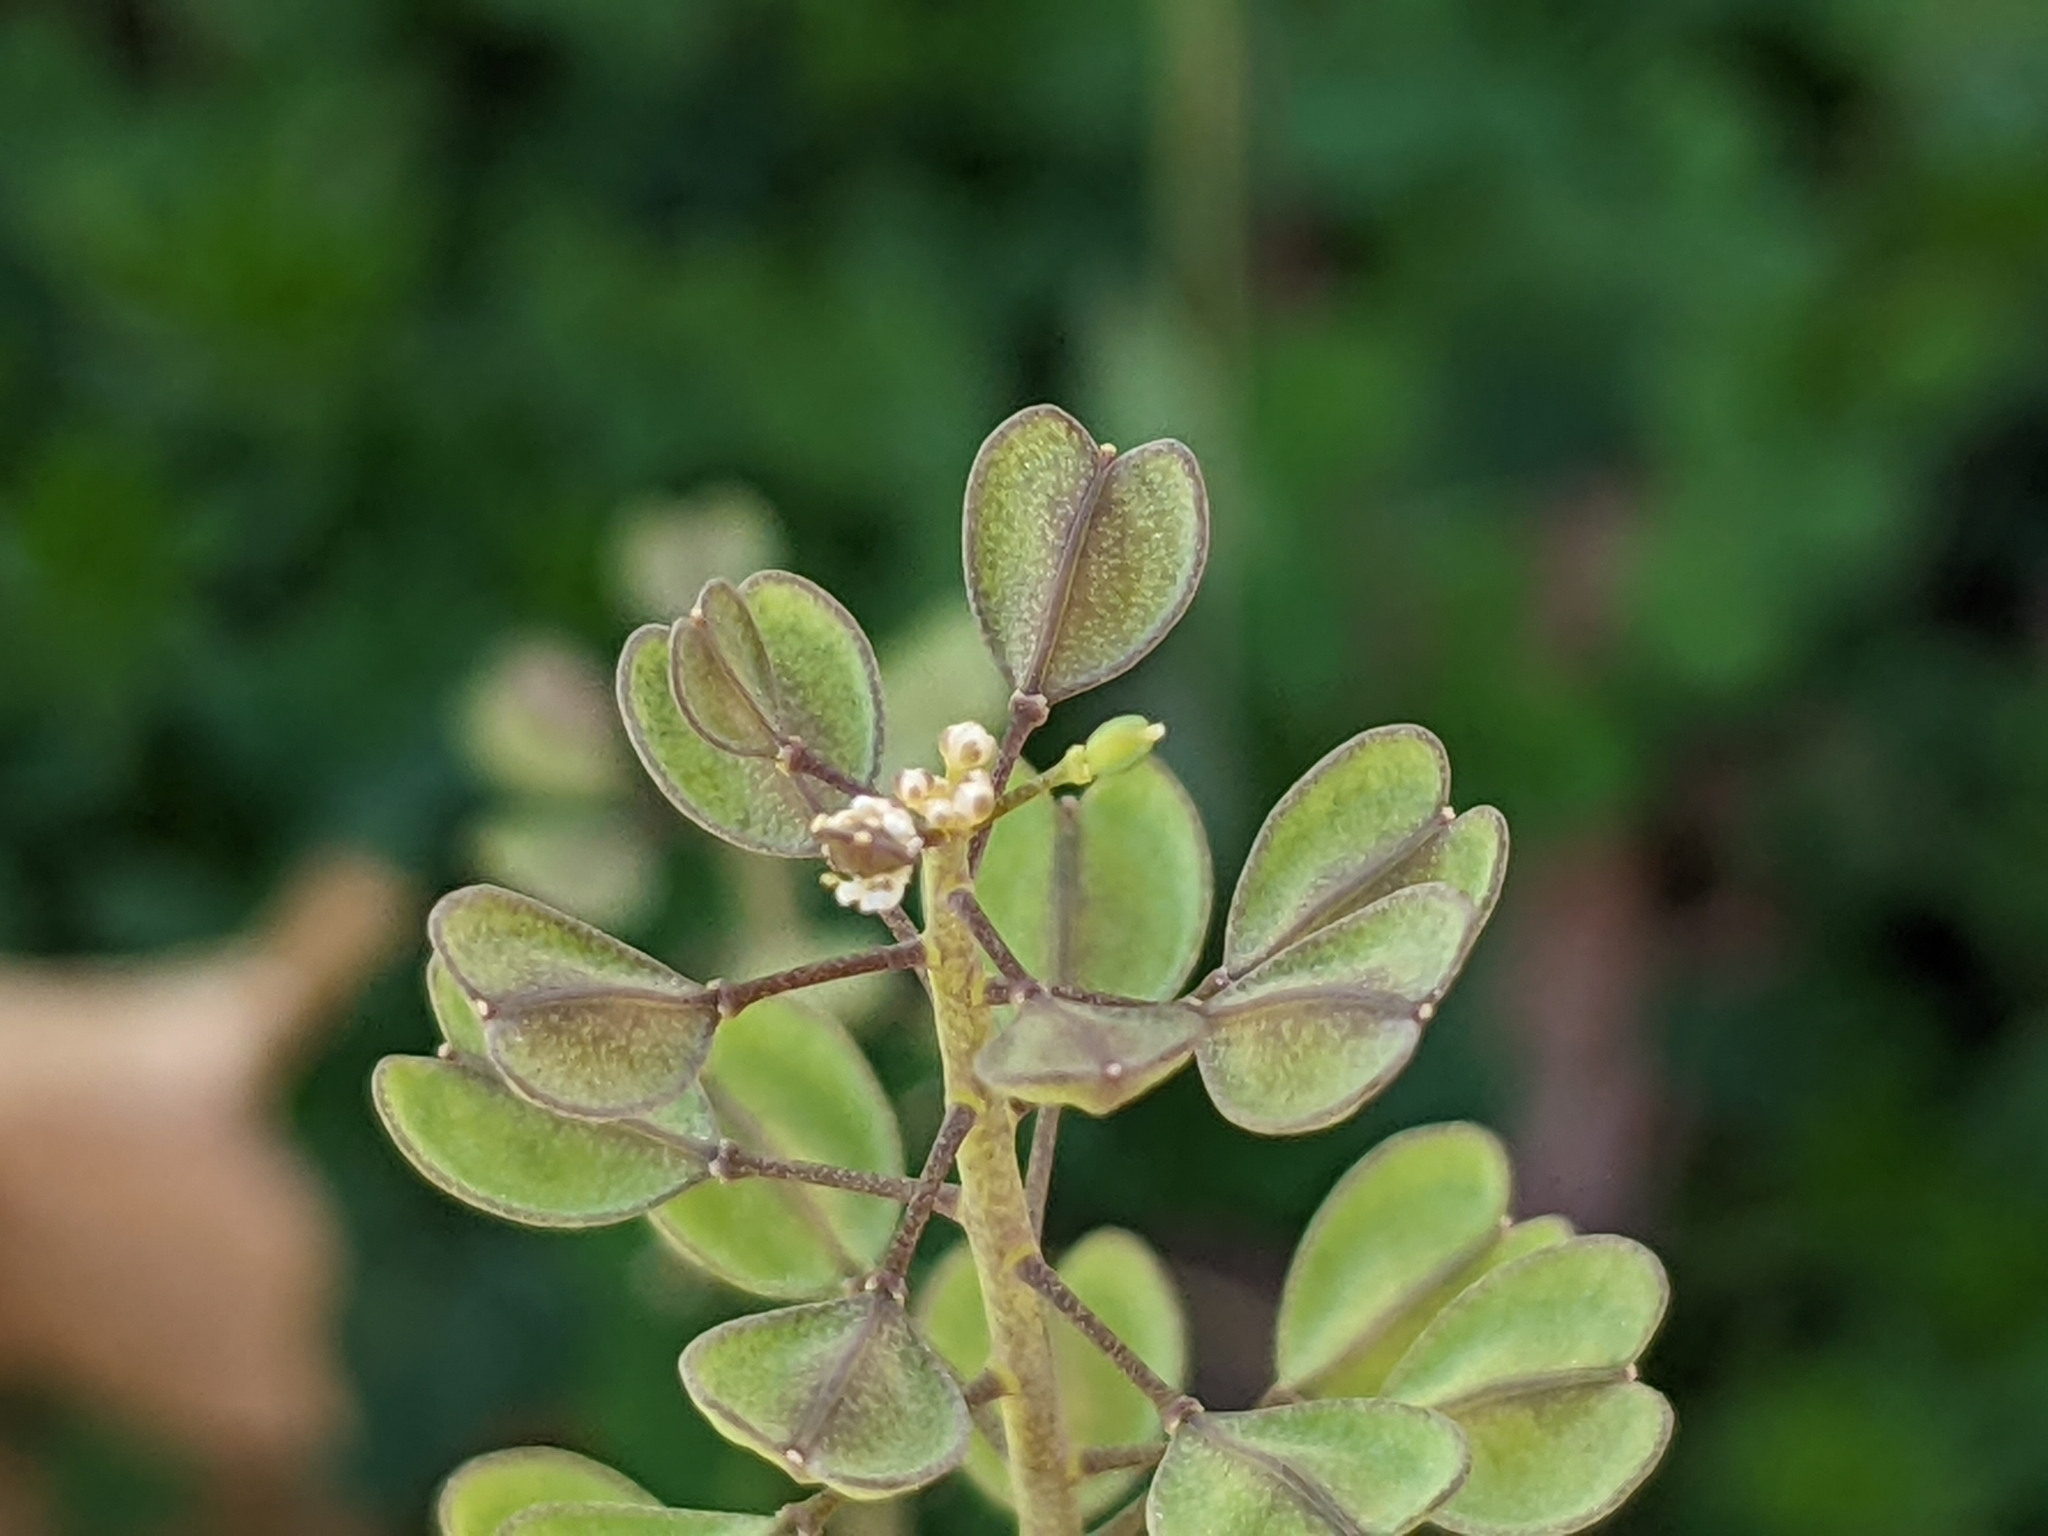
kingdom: Plantae
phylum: Tracheophyta
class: Magnoliopsida
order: Brassicales
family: Brassicaceae
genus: Noccaea
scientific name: Noccaea perfoliata
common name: Perfoliate pennycress
